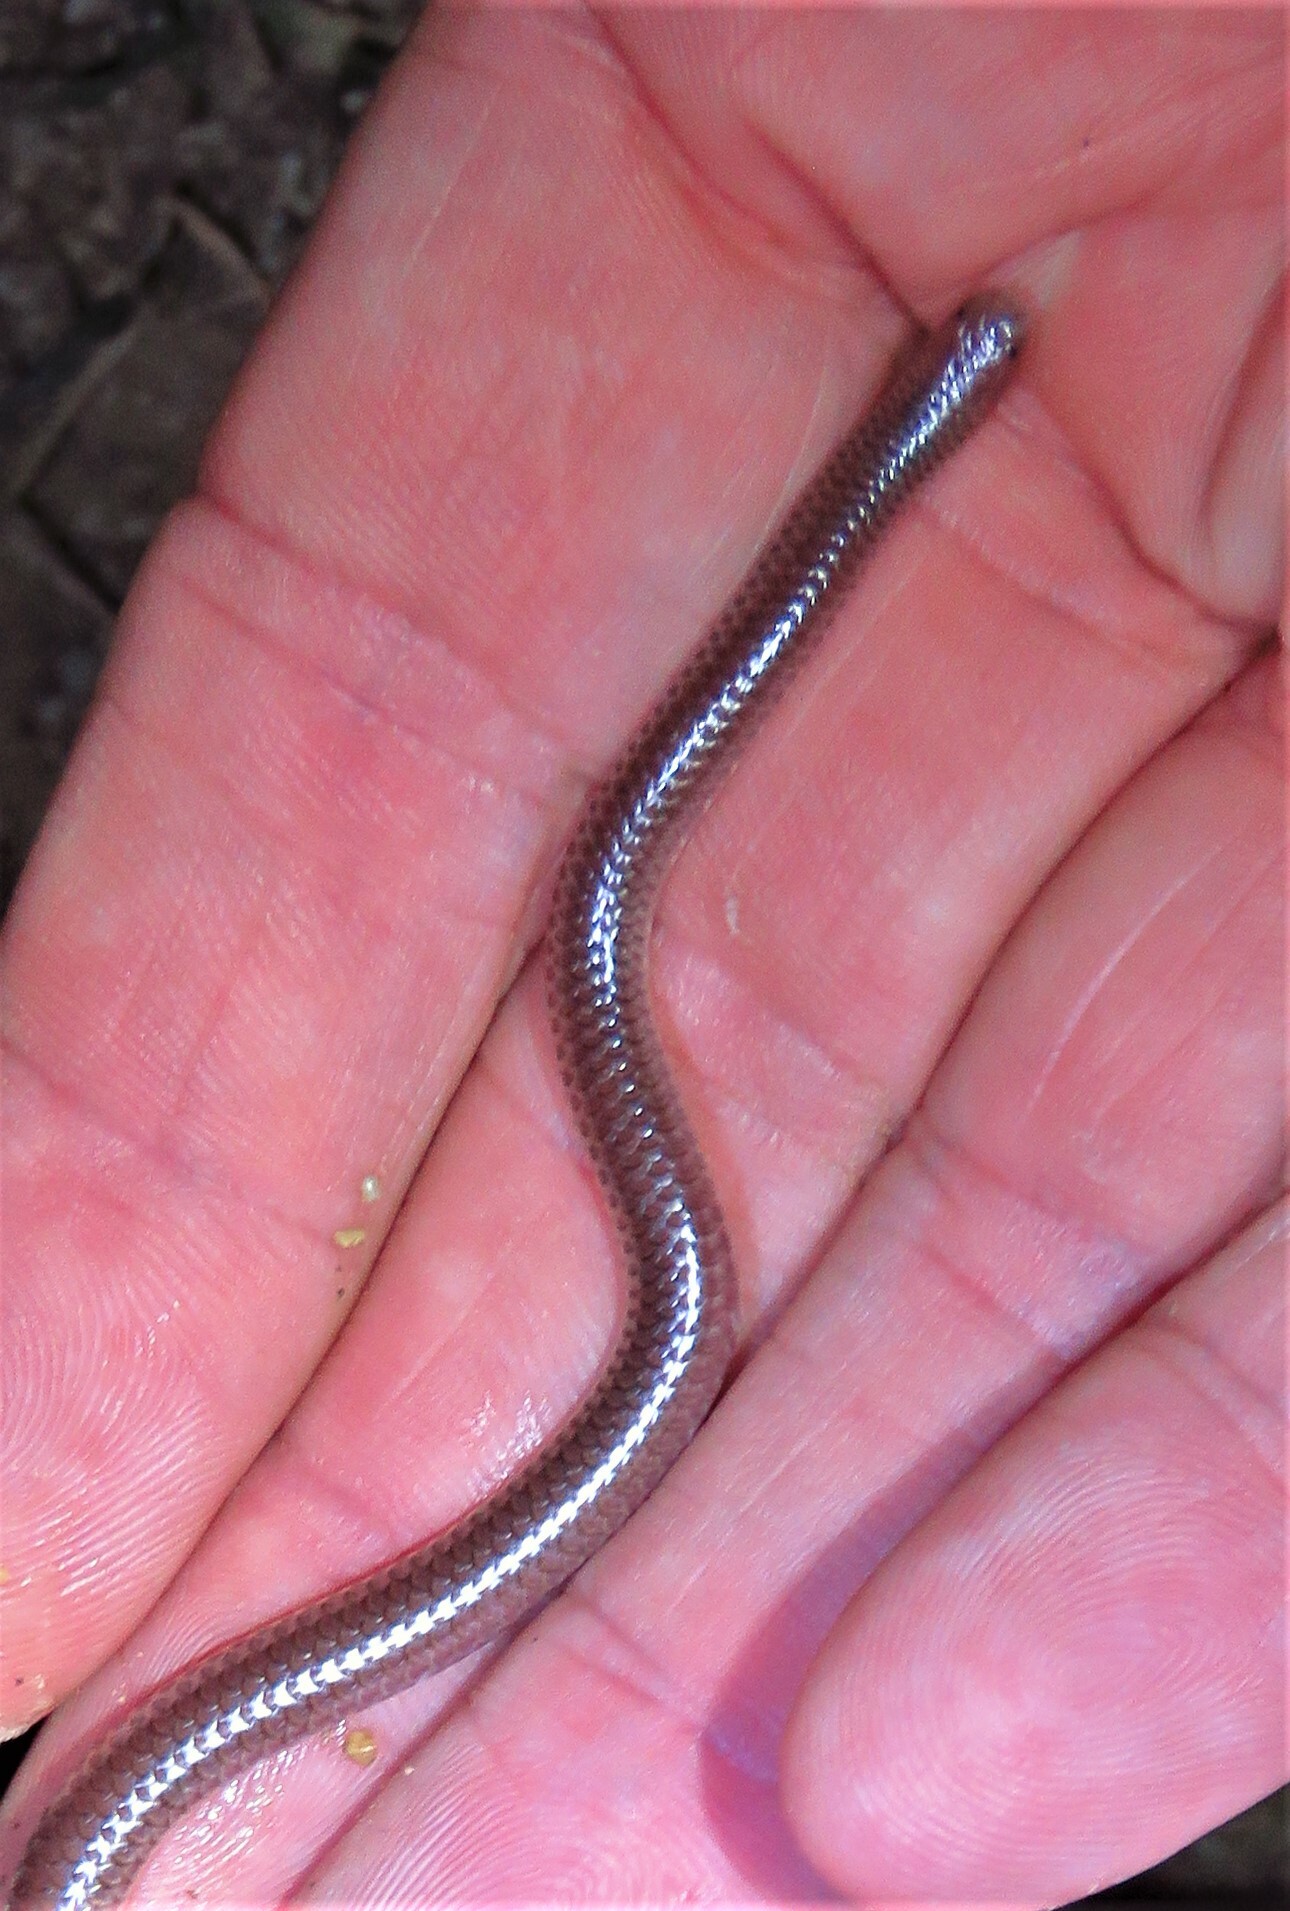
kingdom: Animalia
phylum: Chordata
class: Squamata
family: Leptotyphlopidae
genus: Rena
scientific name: Rena dulcis
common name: Texas blind snake
